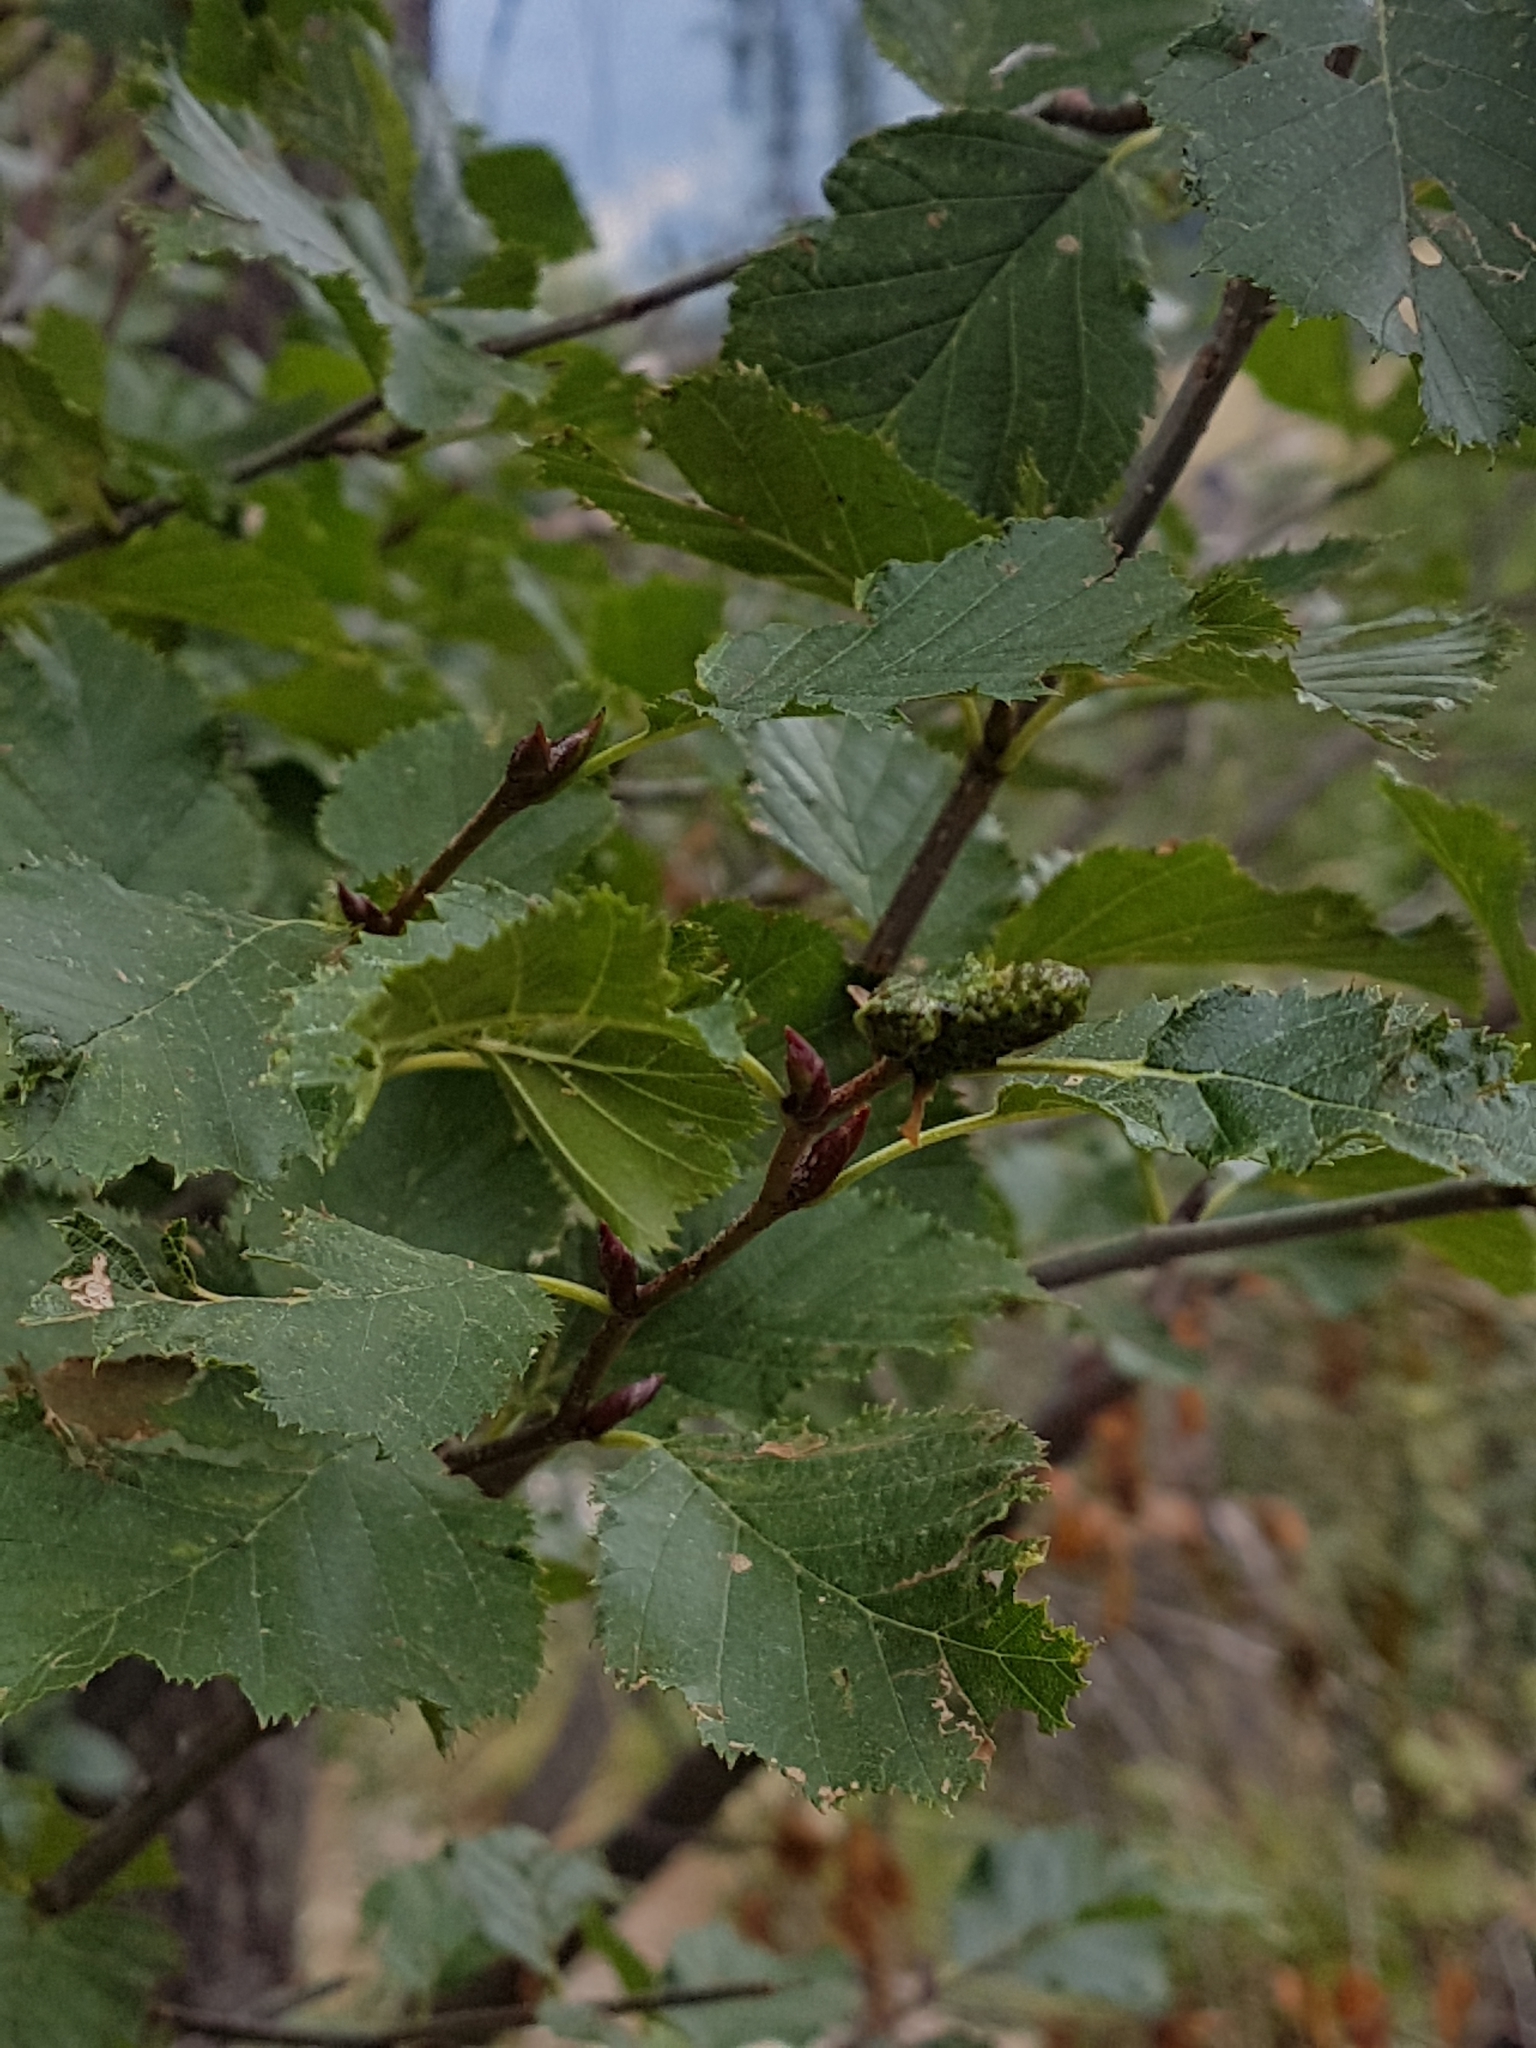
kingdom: Plantae
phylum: Tracheophyta
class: Magnoliopsida
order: Fagales
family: Betulaceae
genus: Alnus
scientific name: Alnus alnobetula
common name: Green alder
